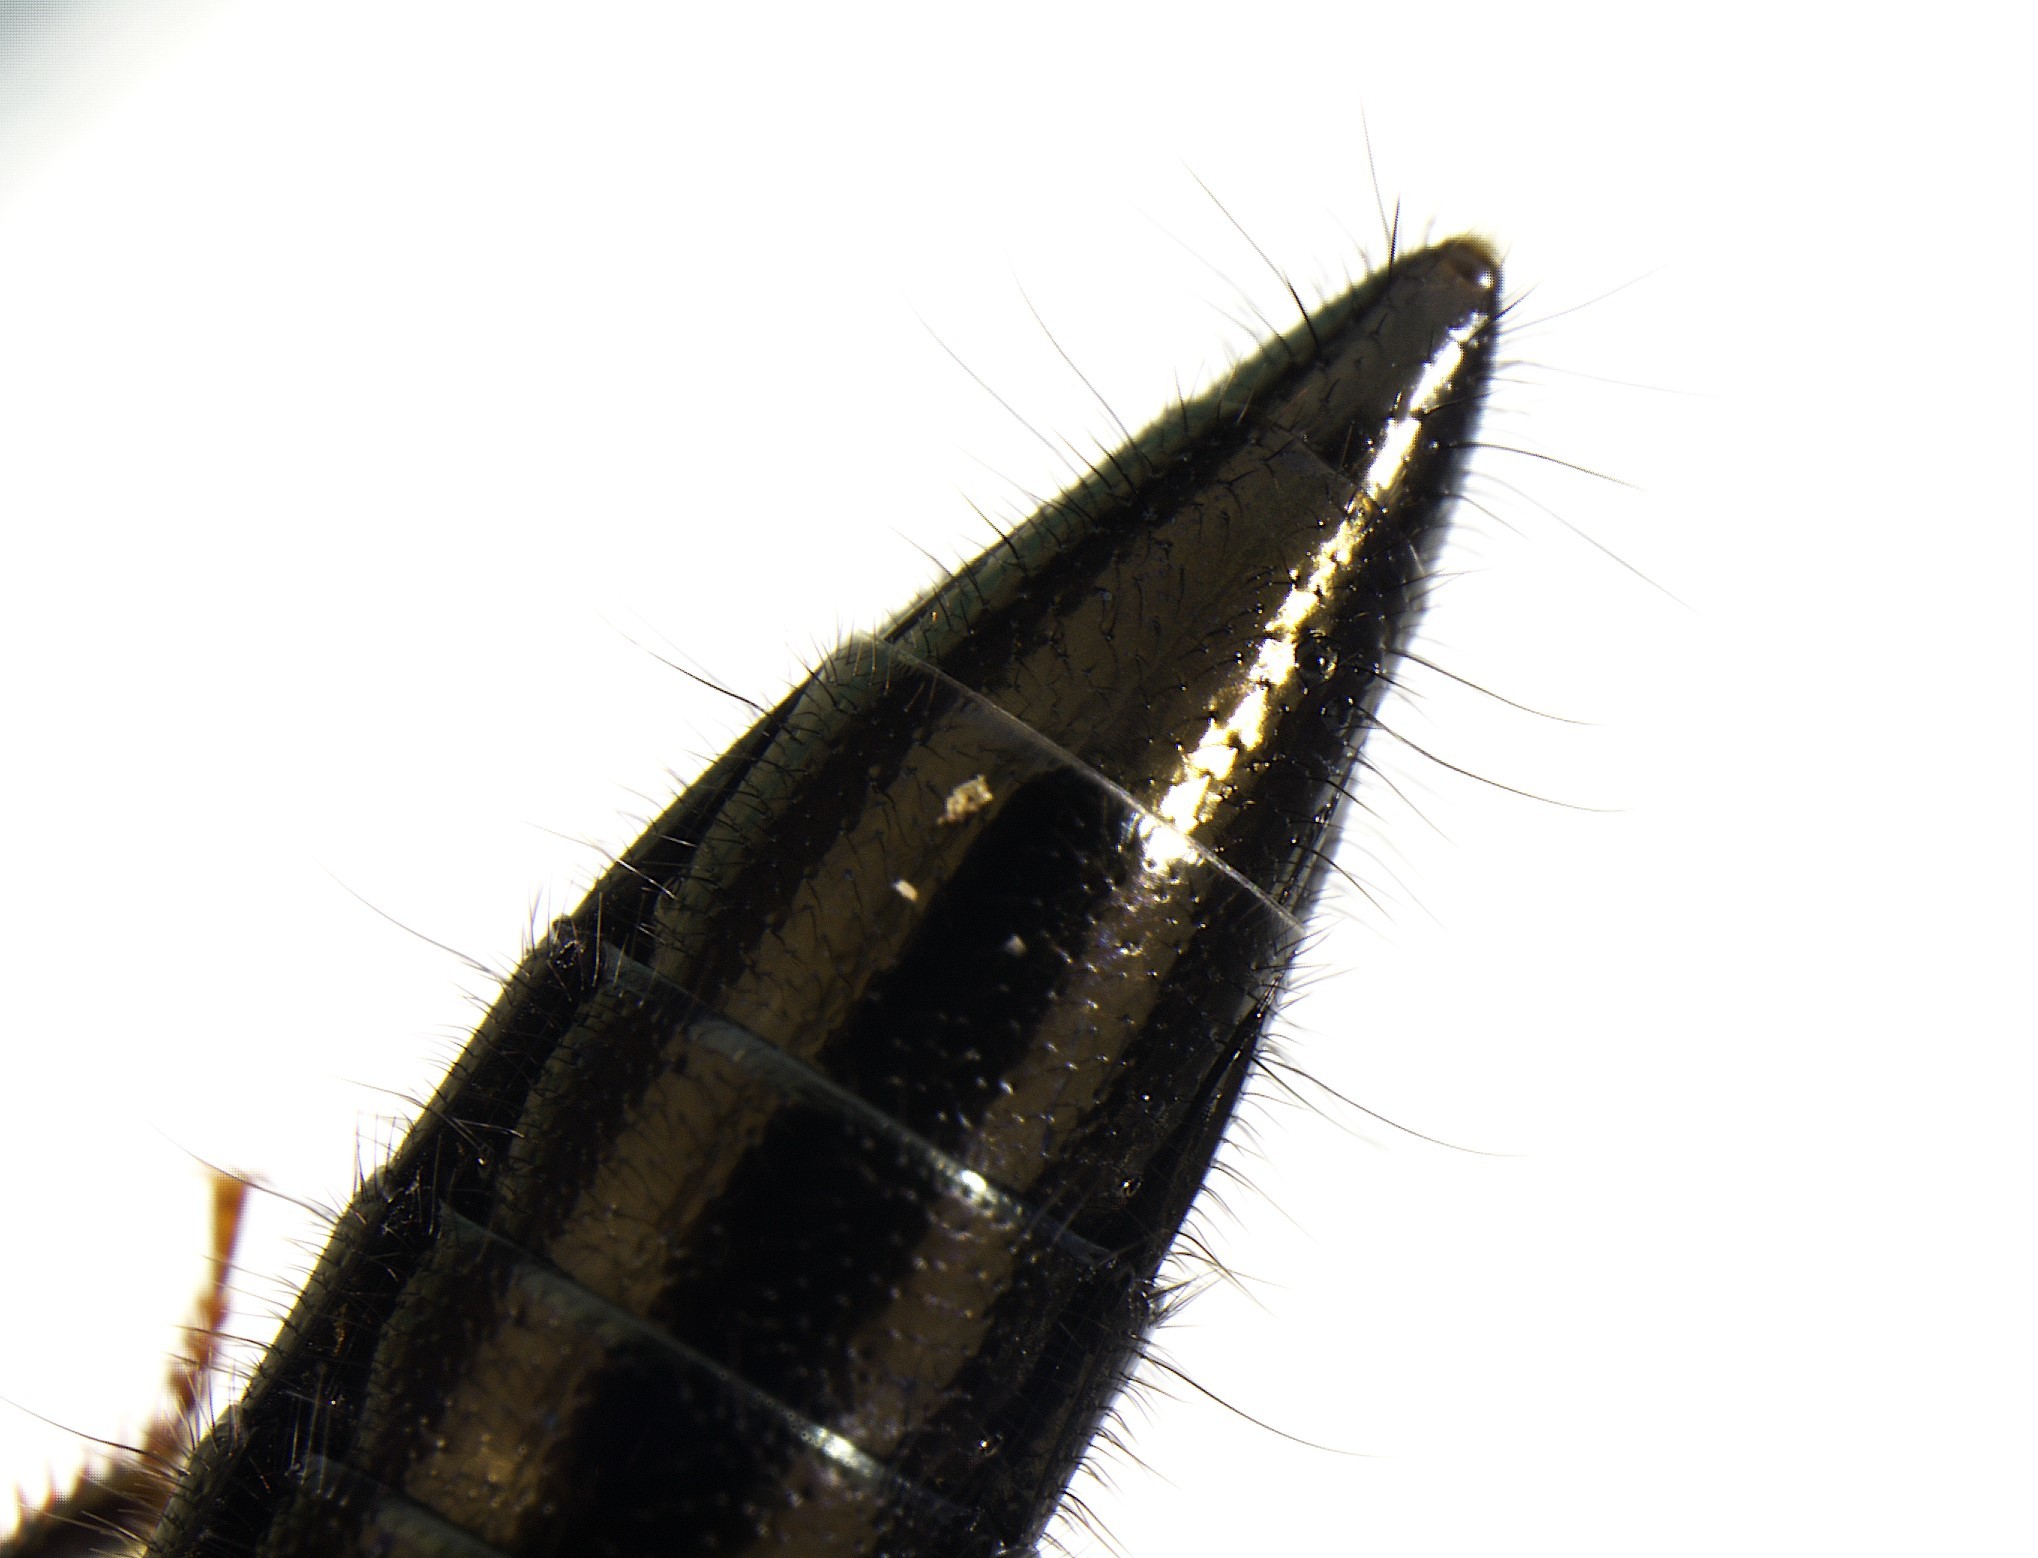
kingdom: Animalia
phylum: Arthropoda
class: Insecta
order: Coleoptera
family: Staphylinidae
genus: Thyreocephalus
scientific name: Thyreocephalus orthodoxus
